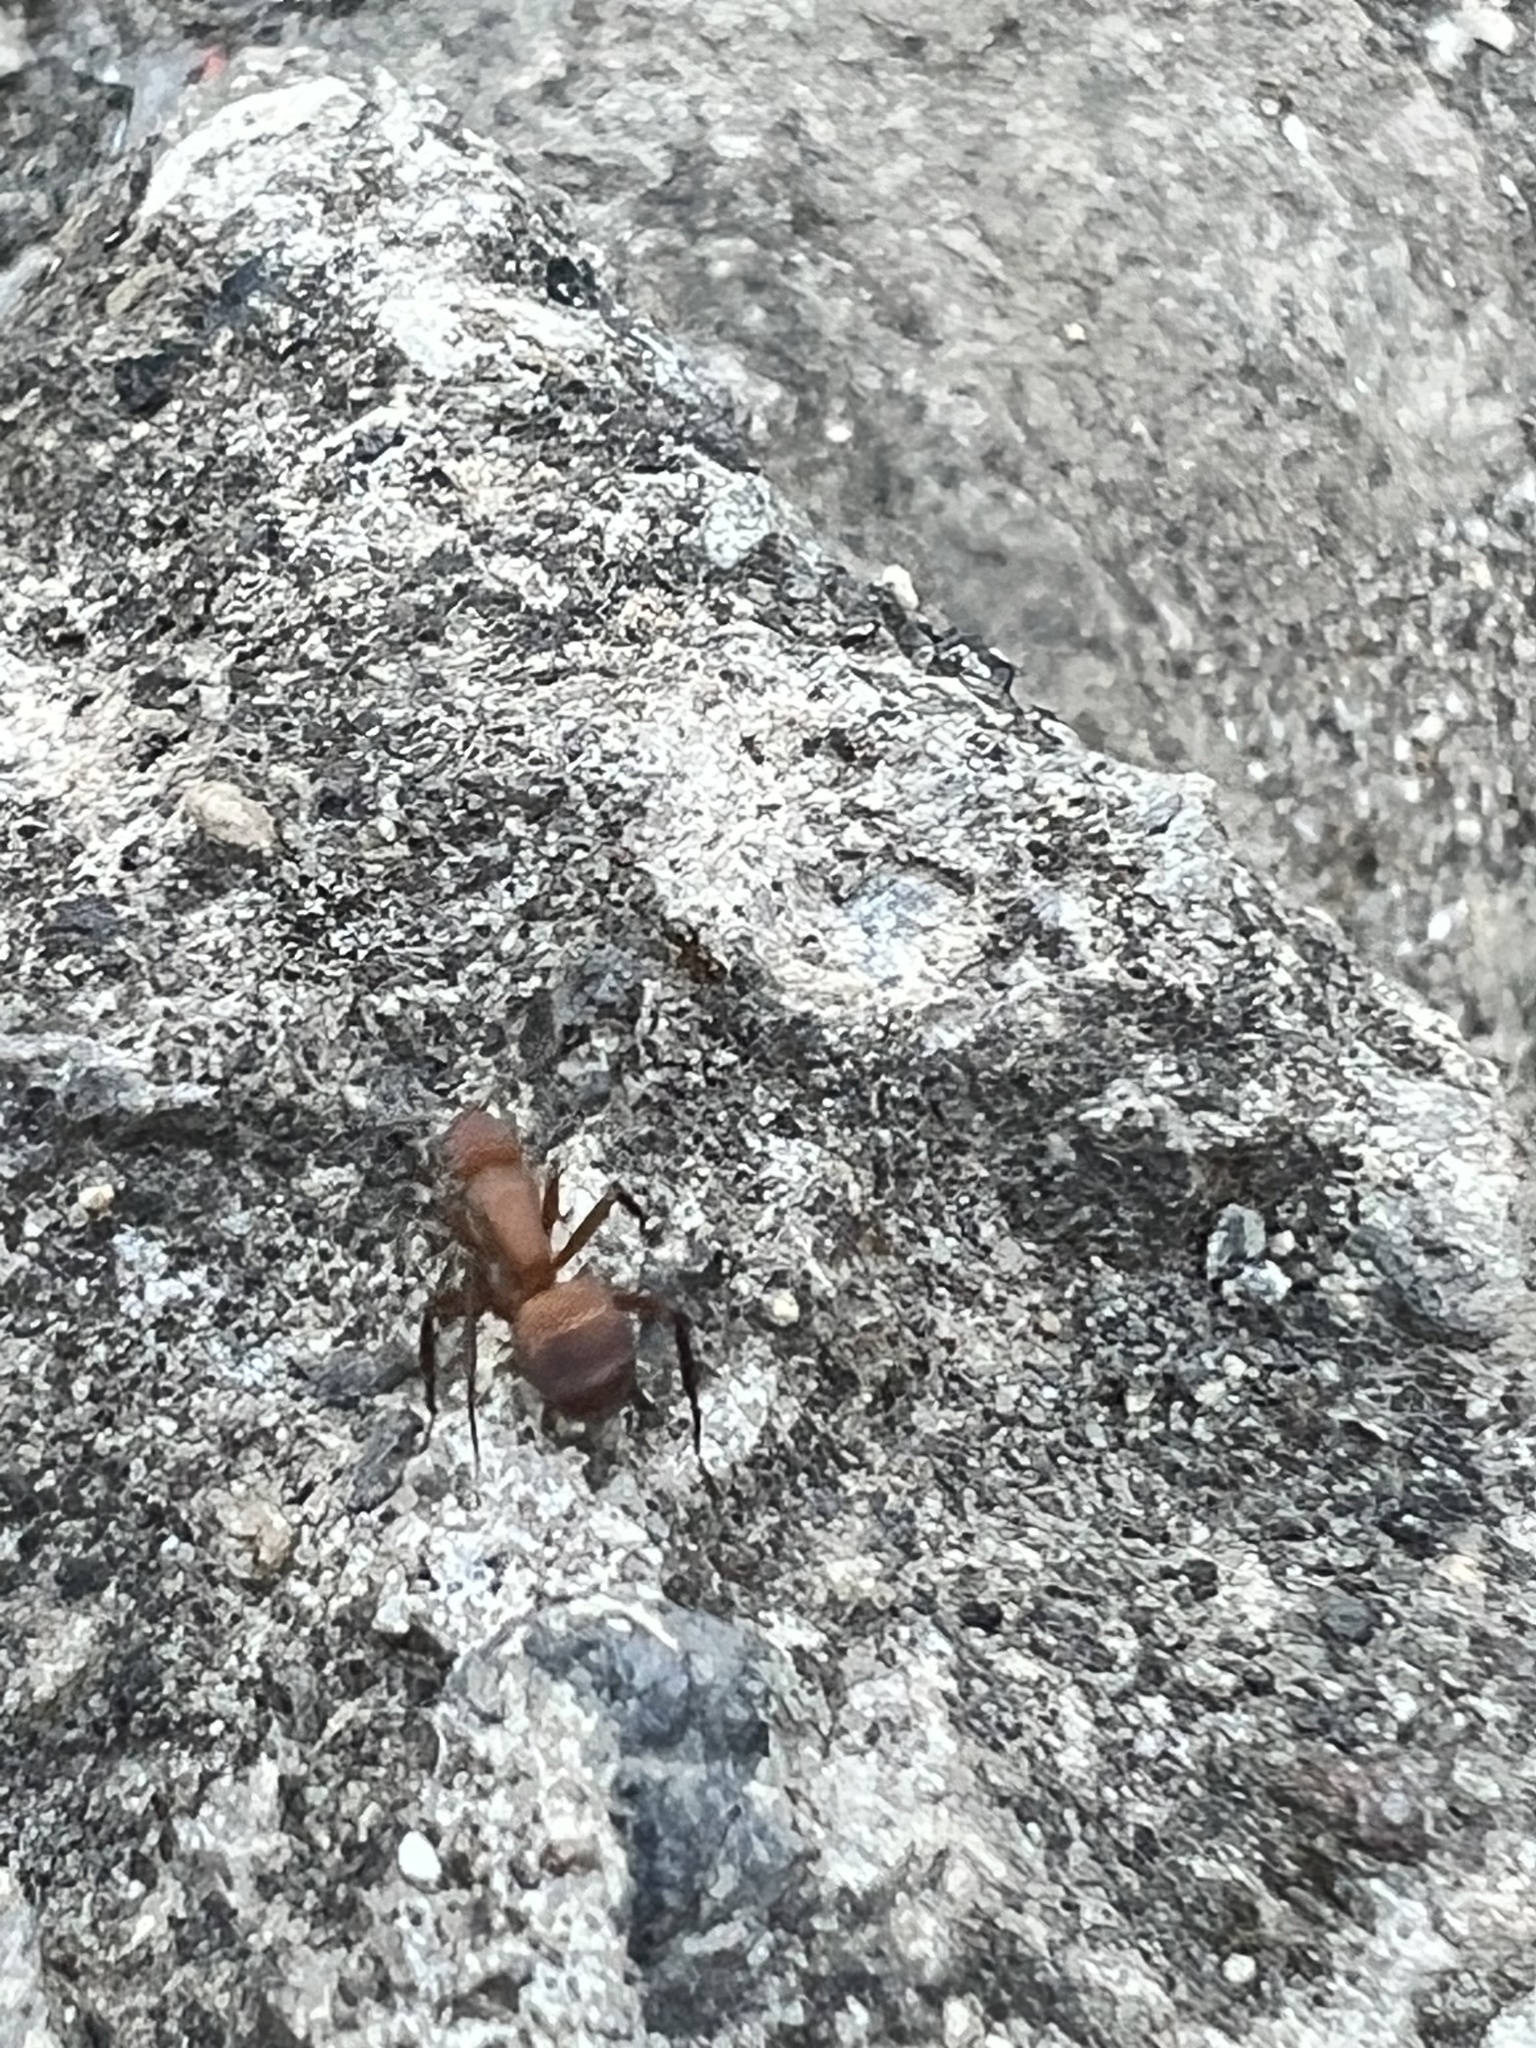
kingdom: Animalia
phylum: Arthropoda
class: Insecta
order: Hymenoptera
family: Formicidae
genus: Camponotus
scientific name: Camponotus rectangularis
